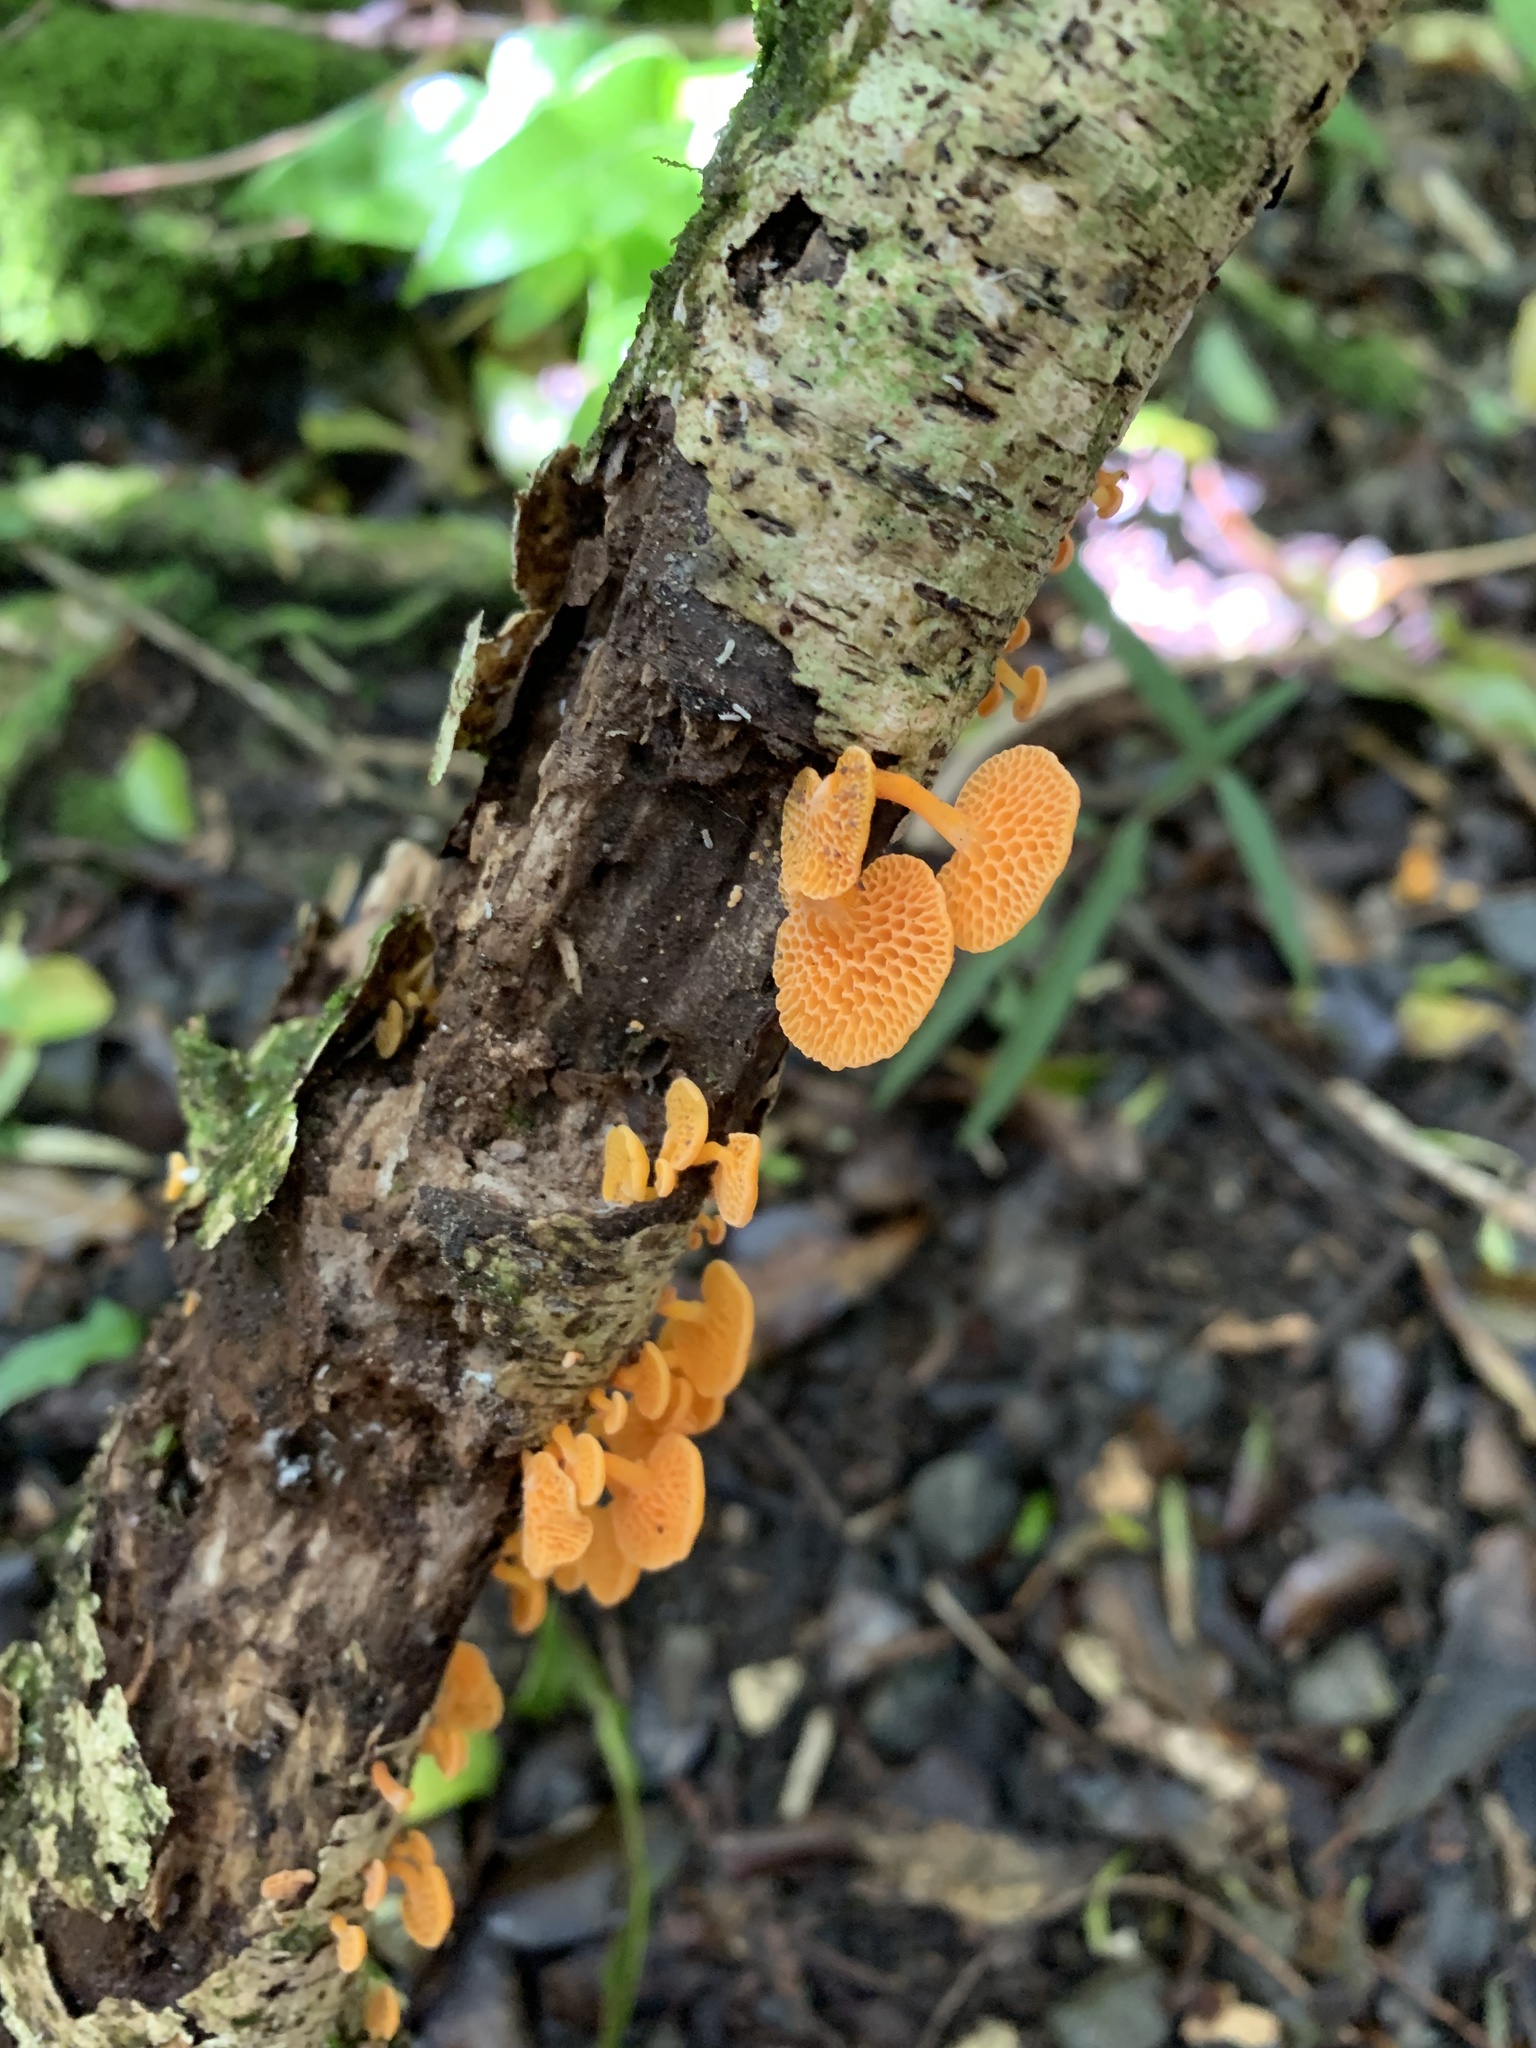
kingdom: Fungi
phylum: Basidiomycota
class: Agaricomycetes
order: Agaricales
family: Mycenaceae
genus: Favolaschia
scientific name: Favolaschia claudopus
